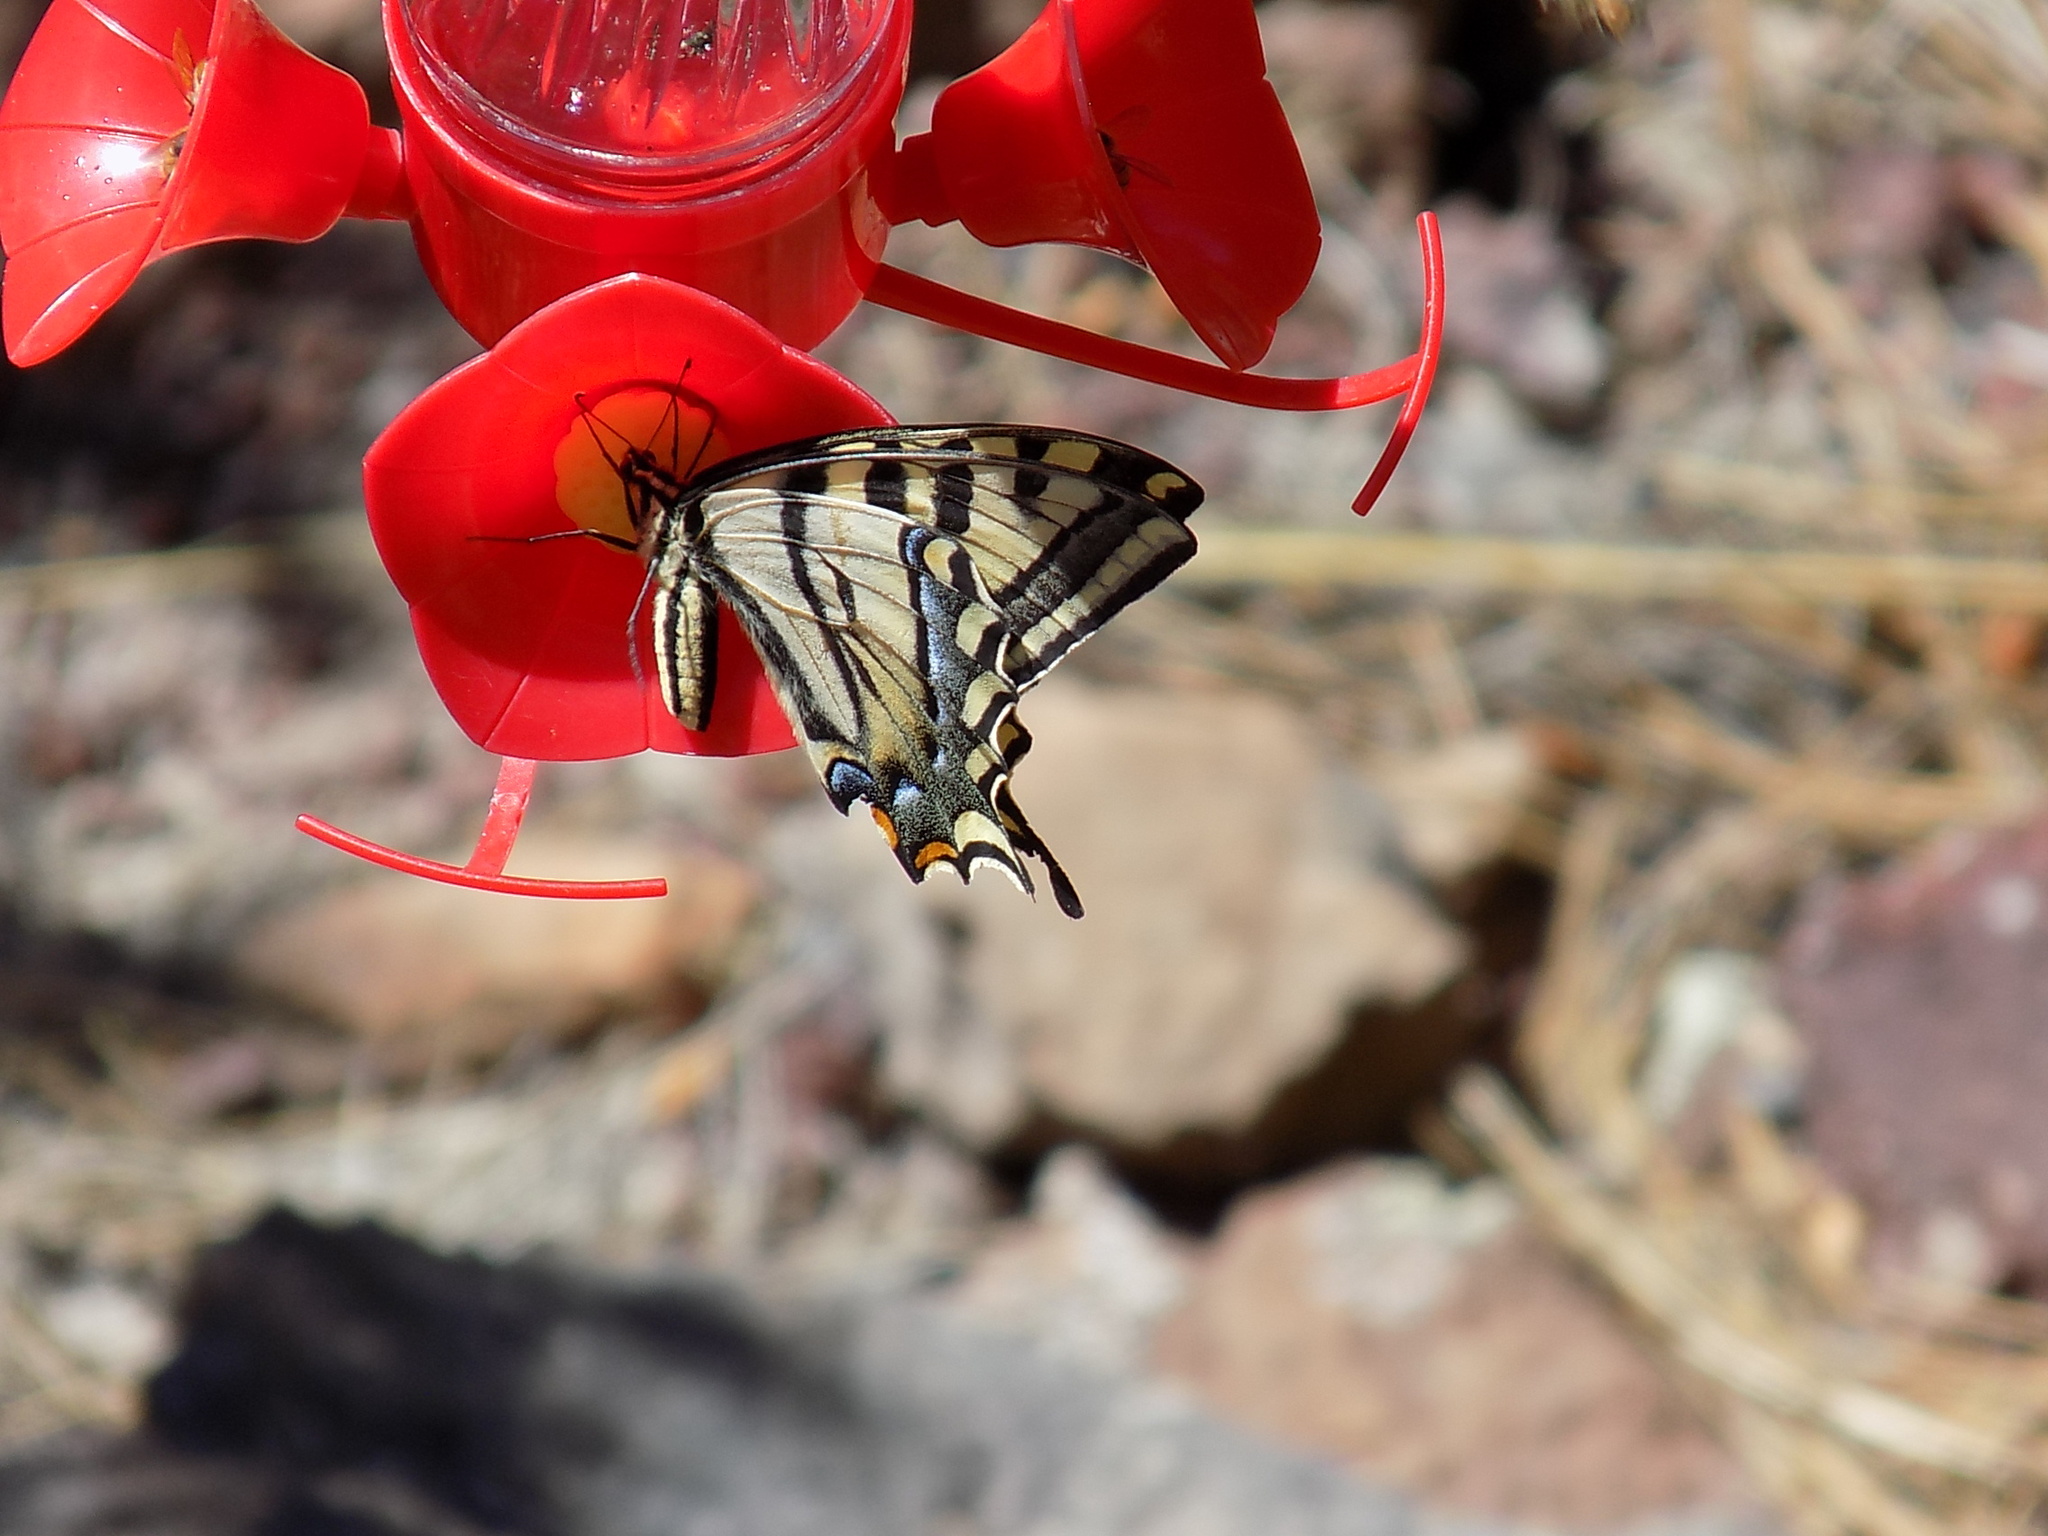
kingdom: Animalia
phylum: Arthropoda
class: Insecta
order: Lepidoptera
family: Papilionidae
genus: Papilio
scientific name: Papilio rutulus
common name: Western tiger swallowtail
